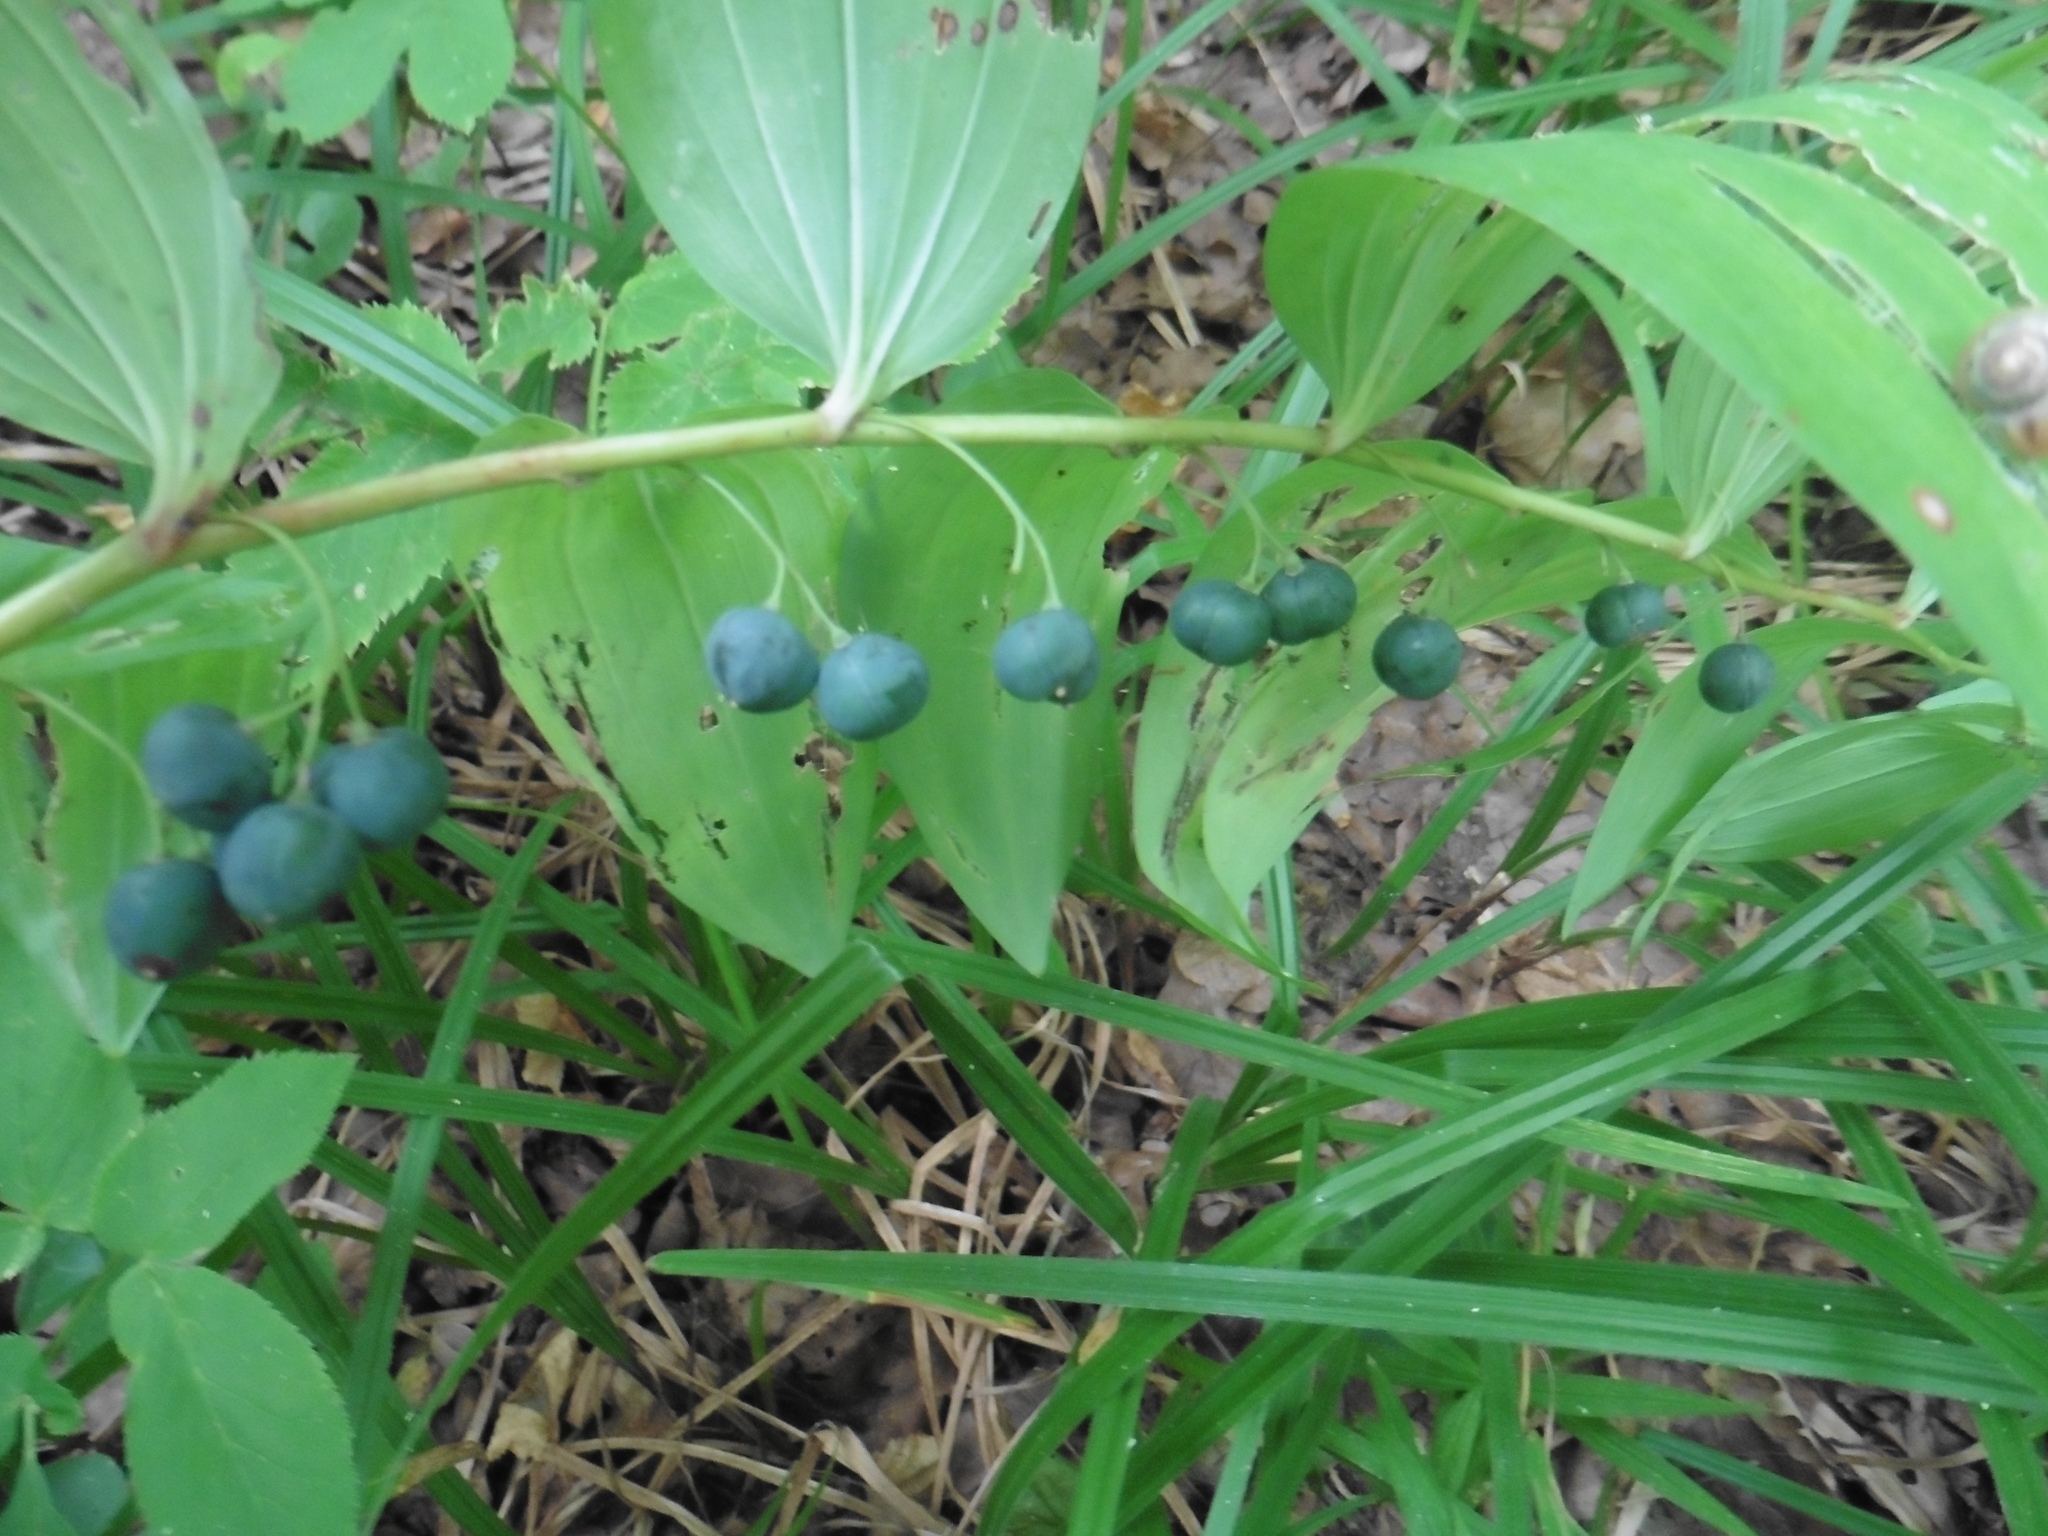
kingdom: Plantae
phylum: Tracheophyta
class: Liliopsida
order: Asparagales
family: Asparagaceae
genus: Polygonatum
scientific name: Polygonatum multiflorum
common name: Solomon's-seal
